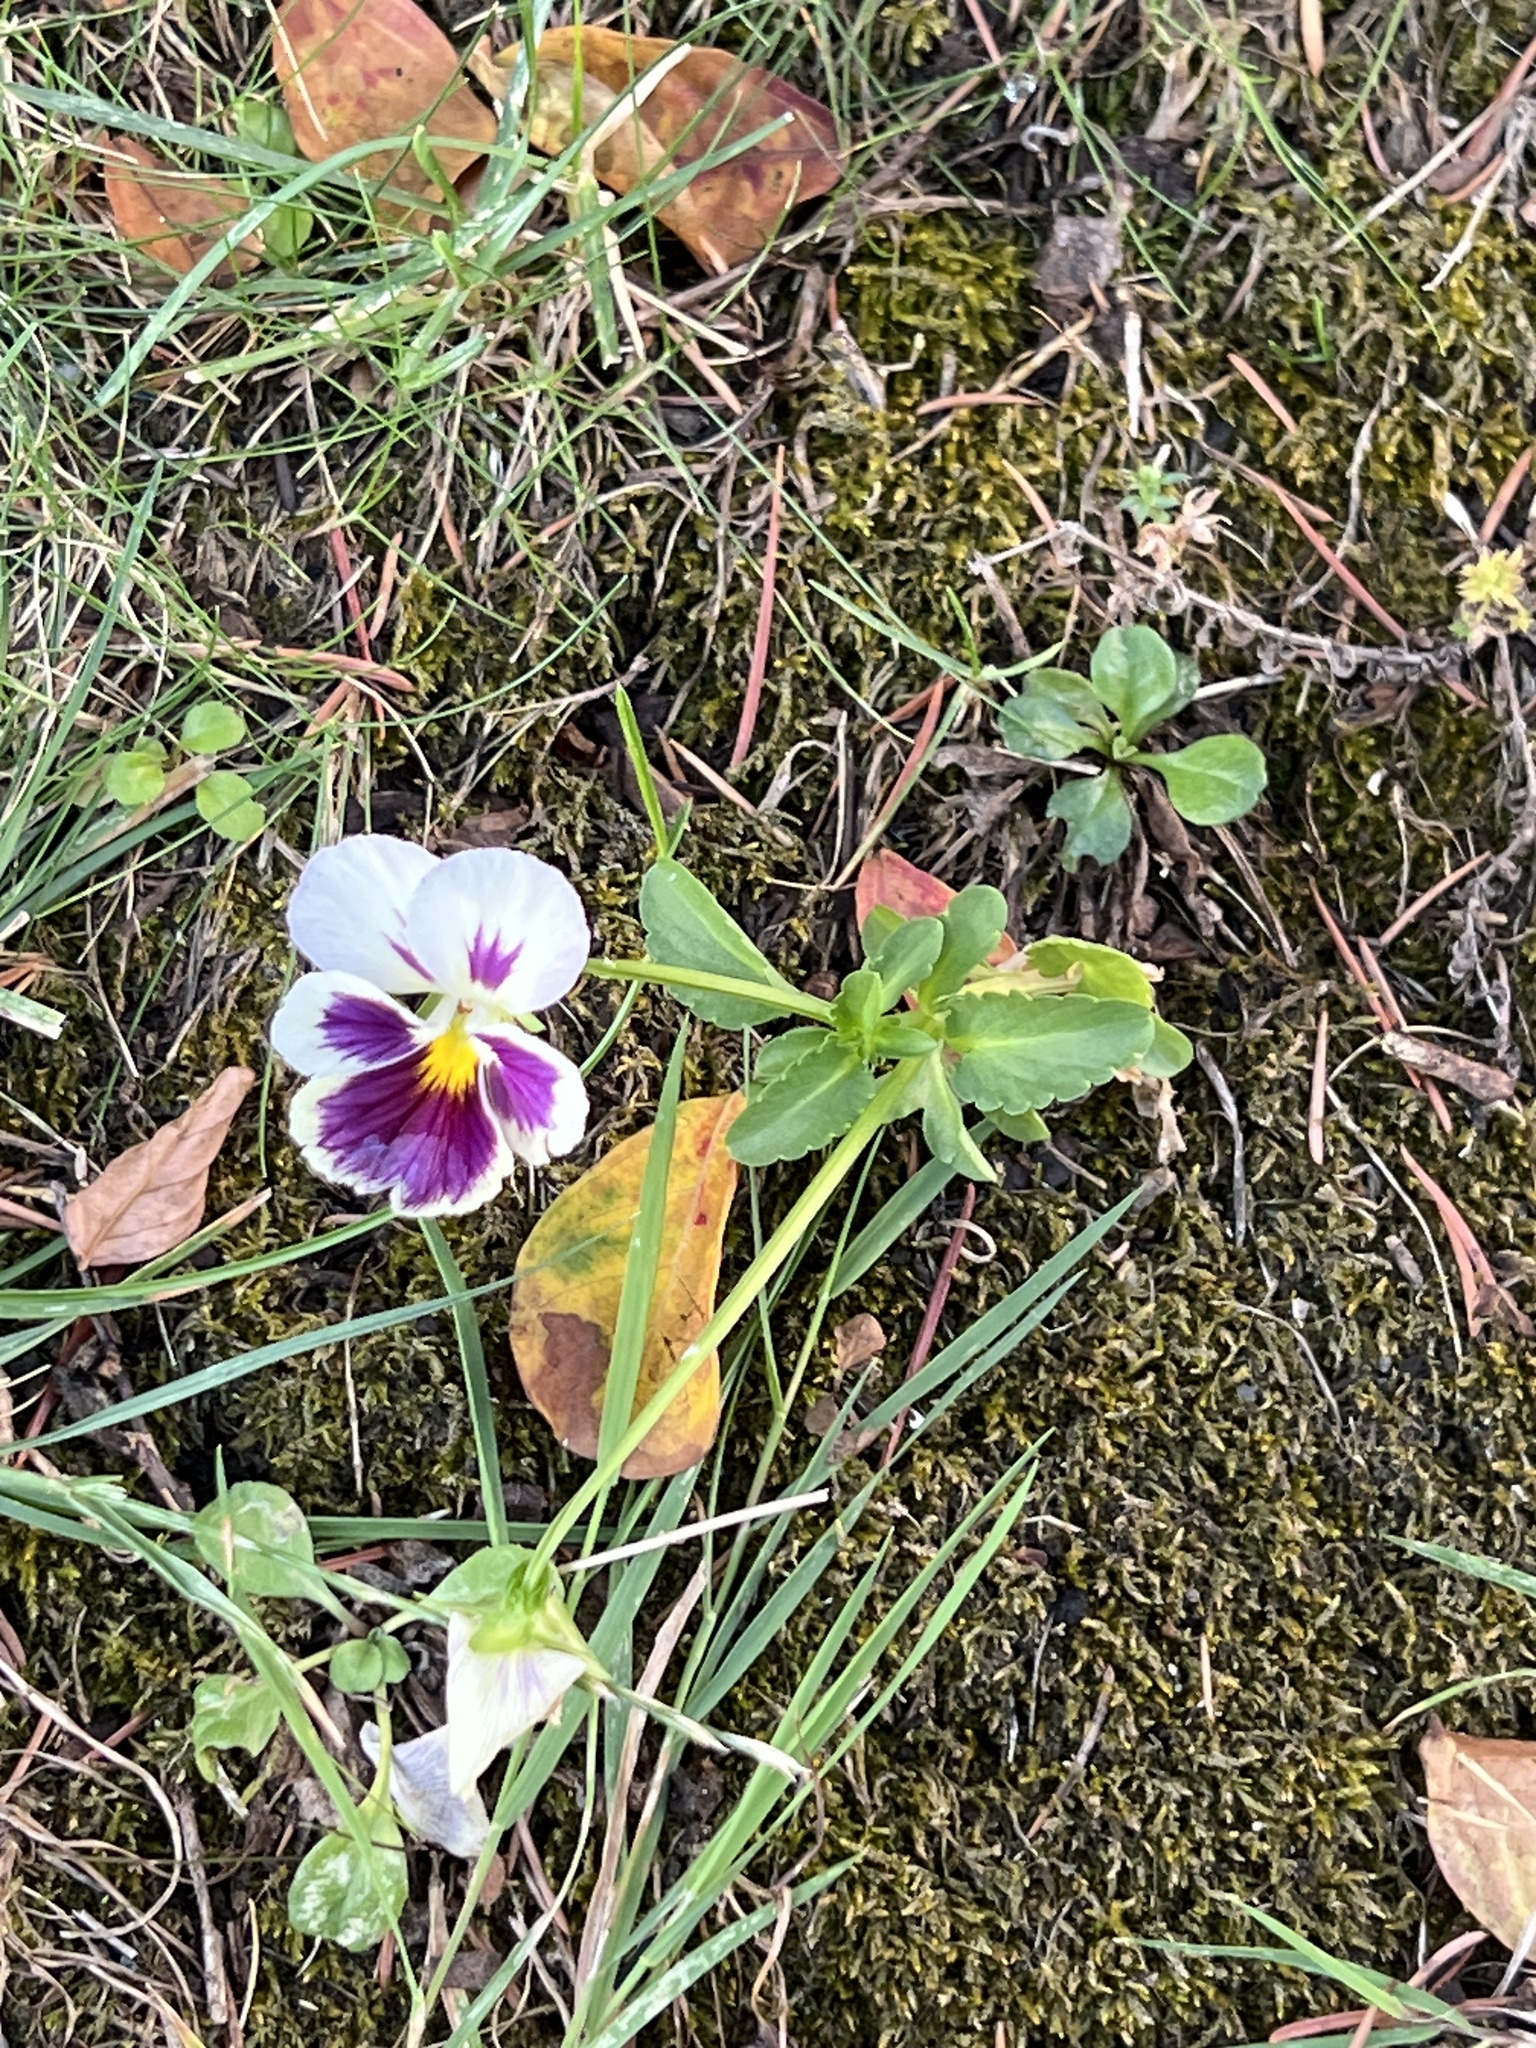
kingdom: Plantae
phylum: Tracheophyta
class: Magnoliopsida
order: Malpighiales
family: Violaceae
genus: Viola
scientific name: Viola wittrockiana
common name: Garden pansy
